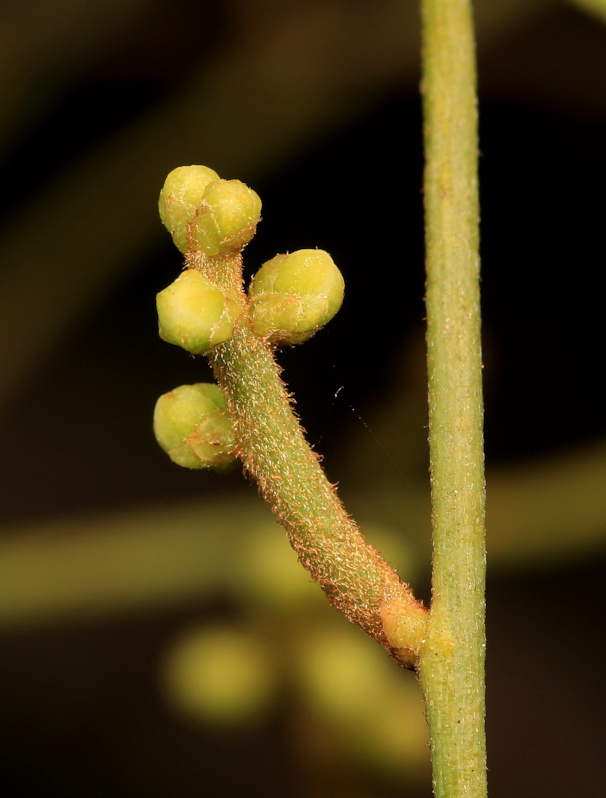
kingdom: Plantae
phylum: Tracheophyta
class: Magnoliopsida
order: Laurales
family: Lauraceae
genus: Cassytha
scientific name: Cassytha filiformis
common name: Dodder-laurel
